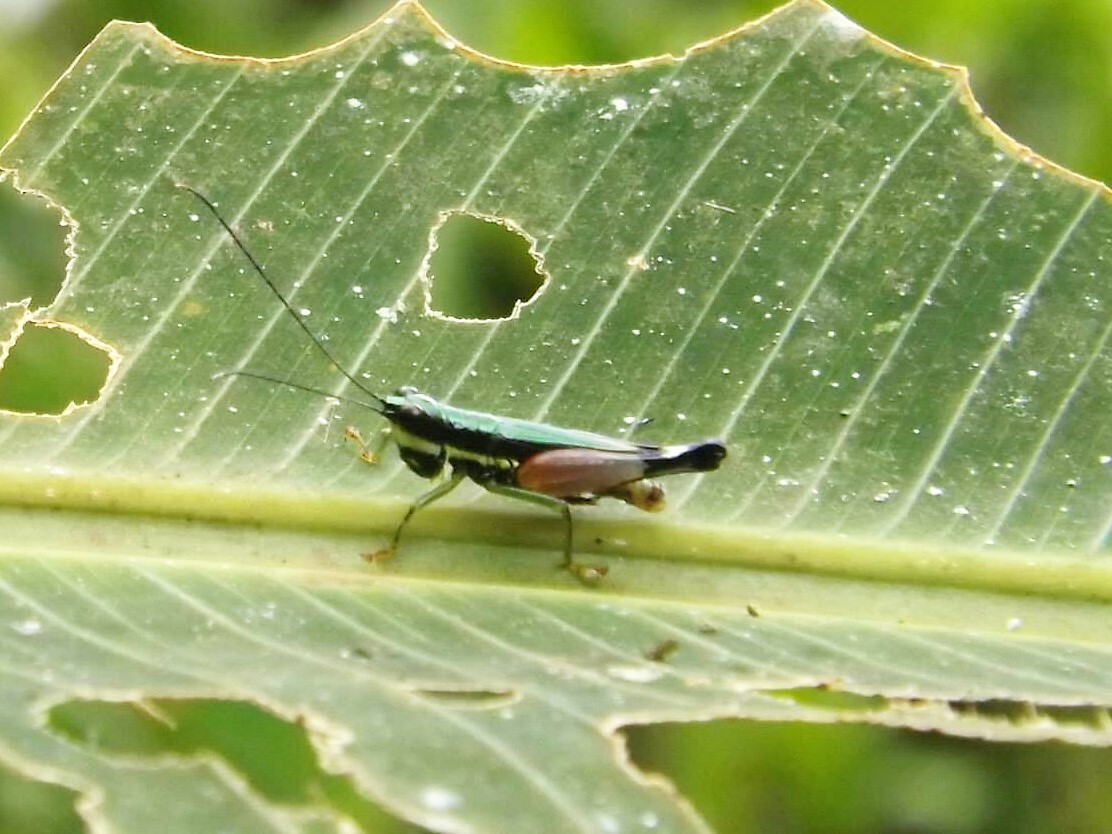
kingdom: Animalia
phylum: Arthropoda
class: Insecta
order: Orthoptera
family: Acrididae
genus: Nadiacris
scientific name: Nadiacris nitidula
